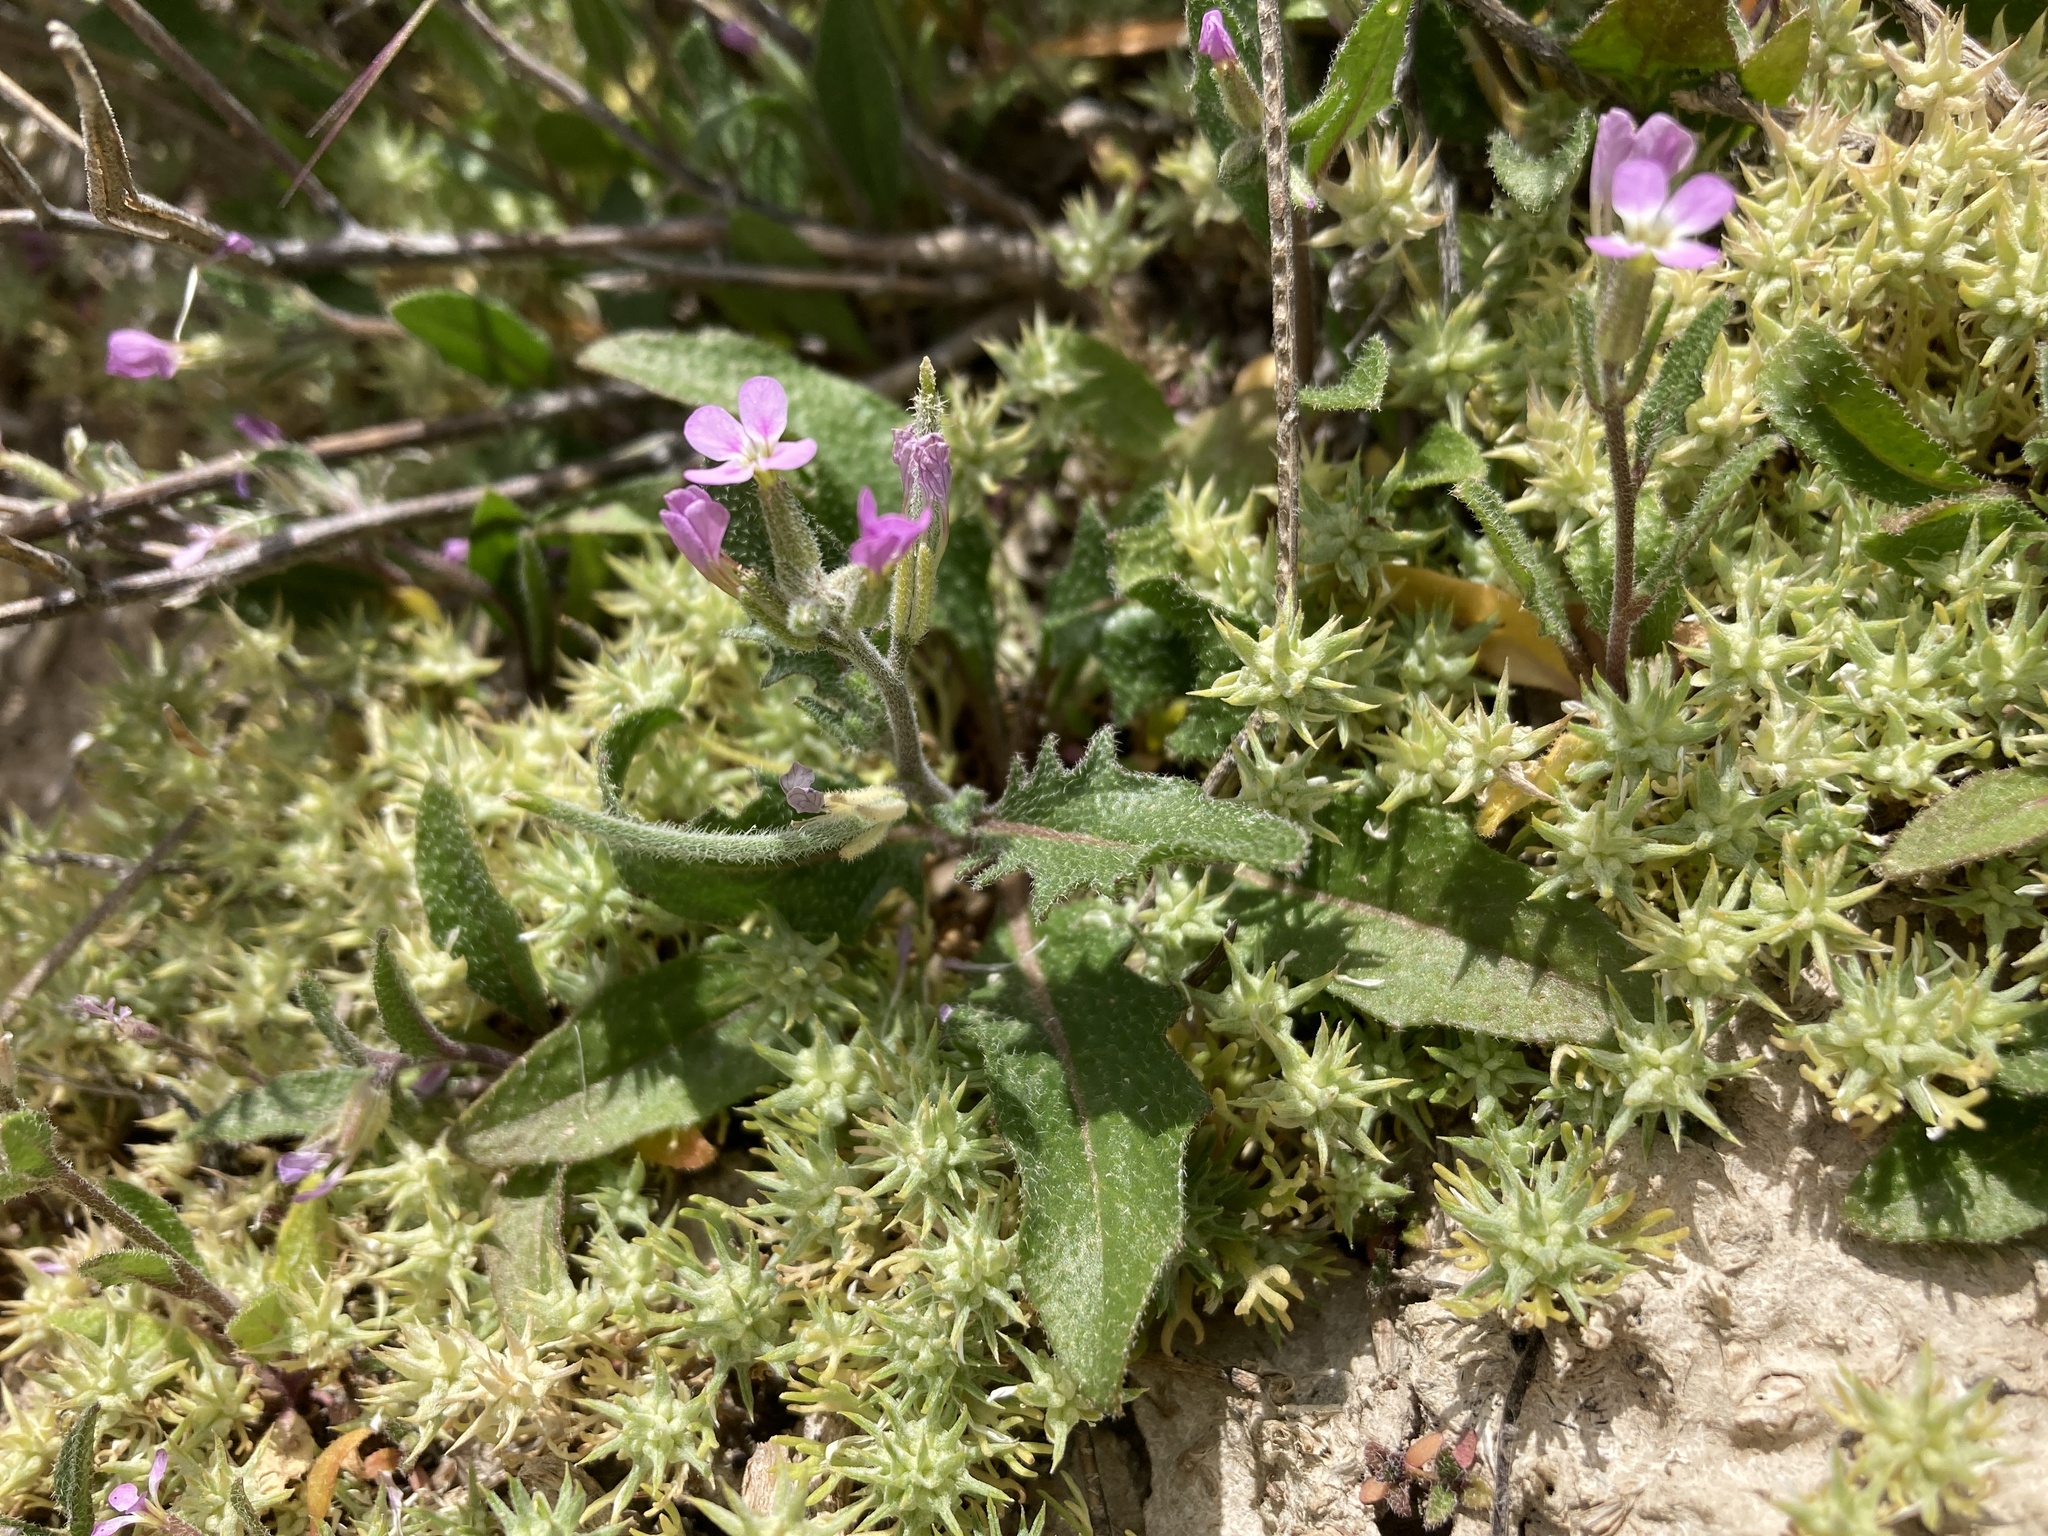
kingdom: Plantae
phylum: Tracheophyta
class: Magnoliopsida
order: Brassicales
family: Brassicaceae
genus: Strigosella
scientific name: Strigosella africana
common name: African mustard
